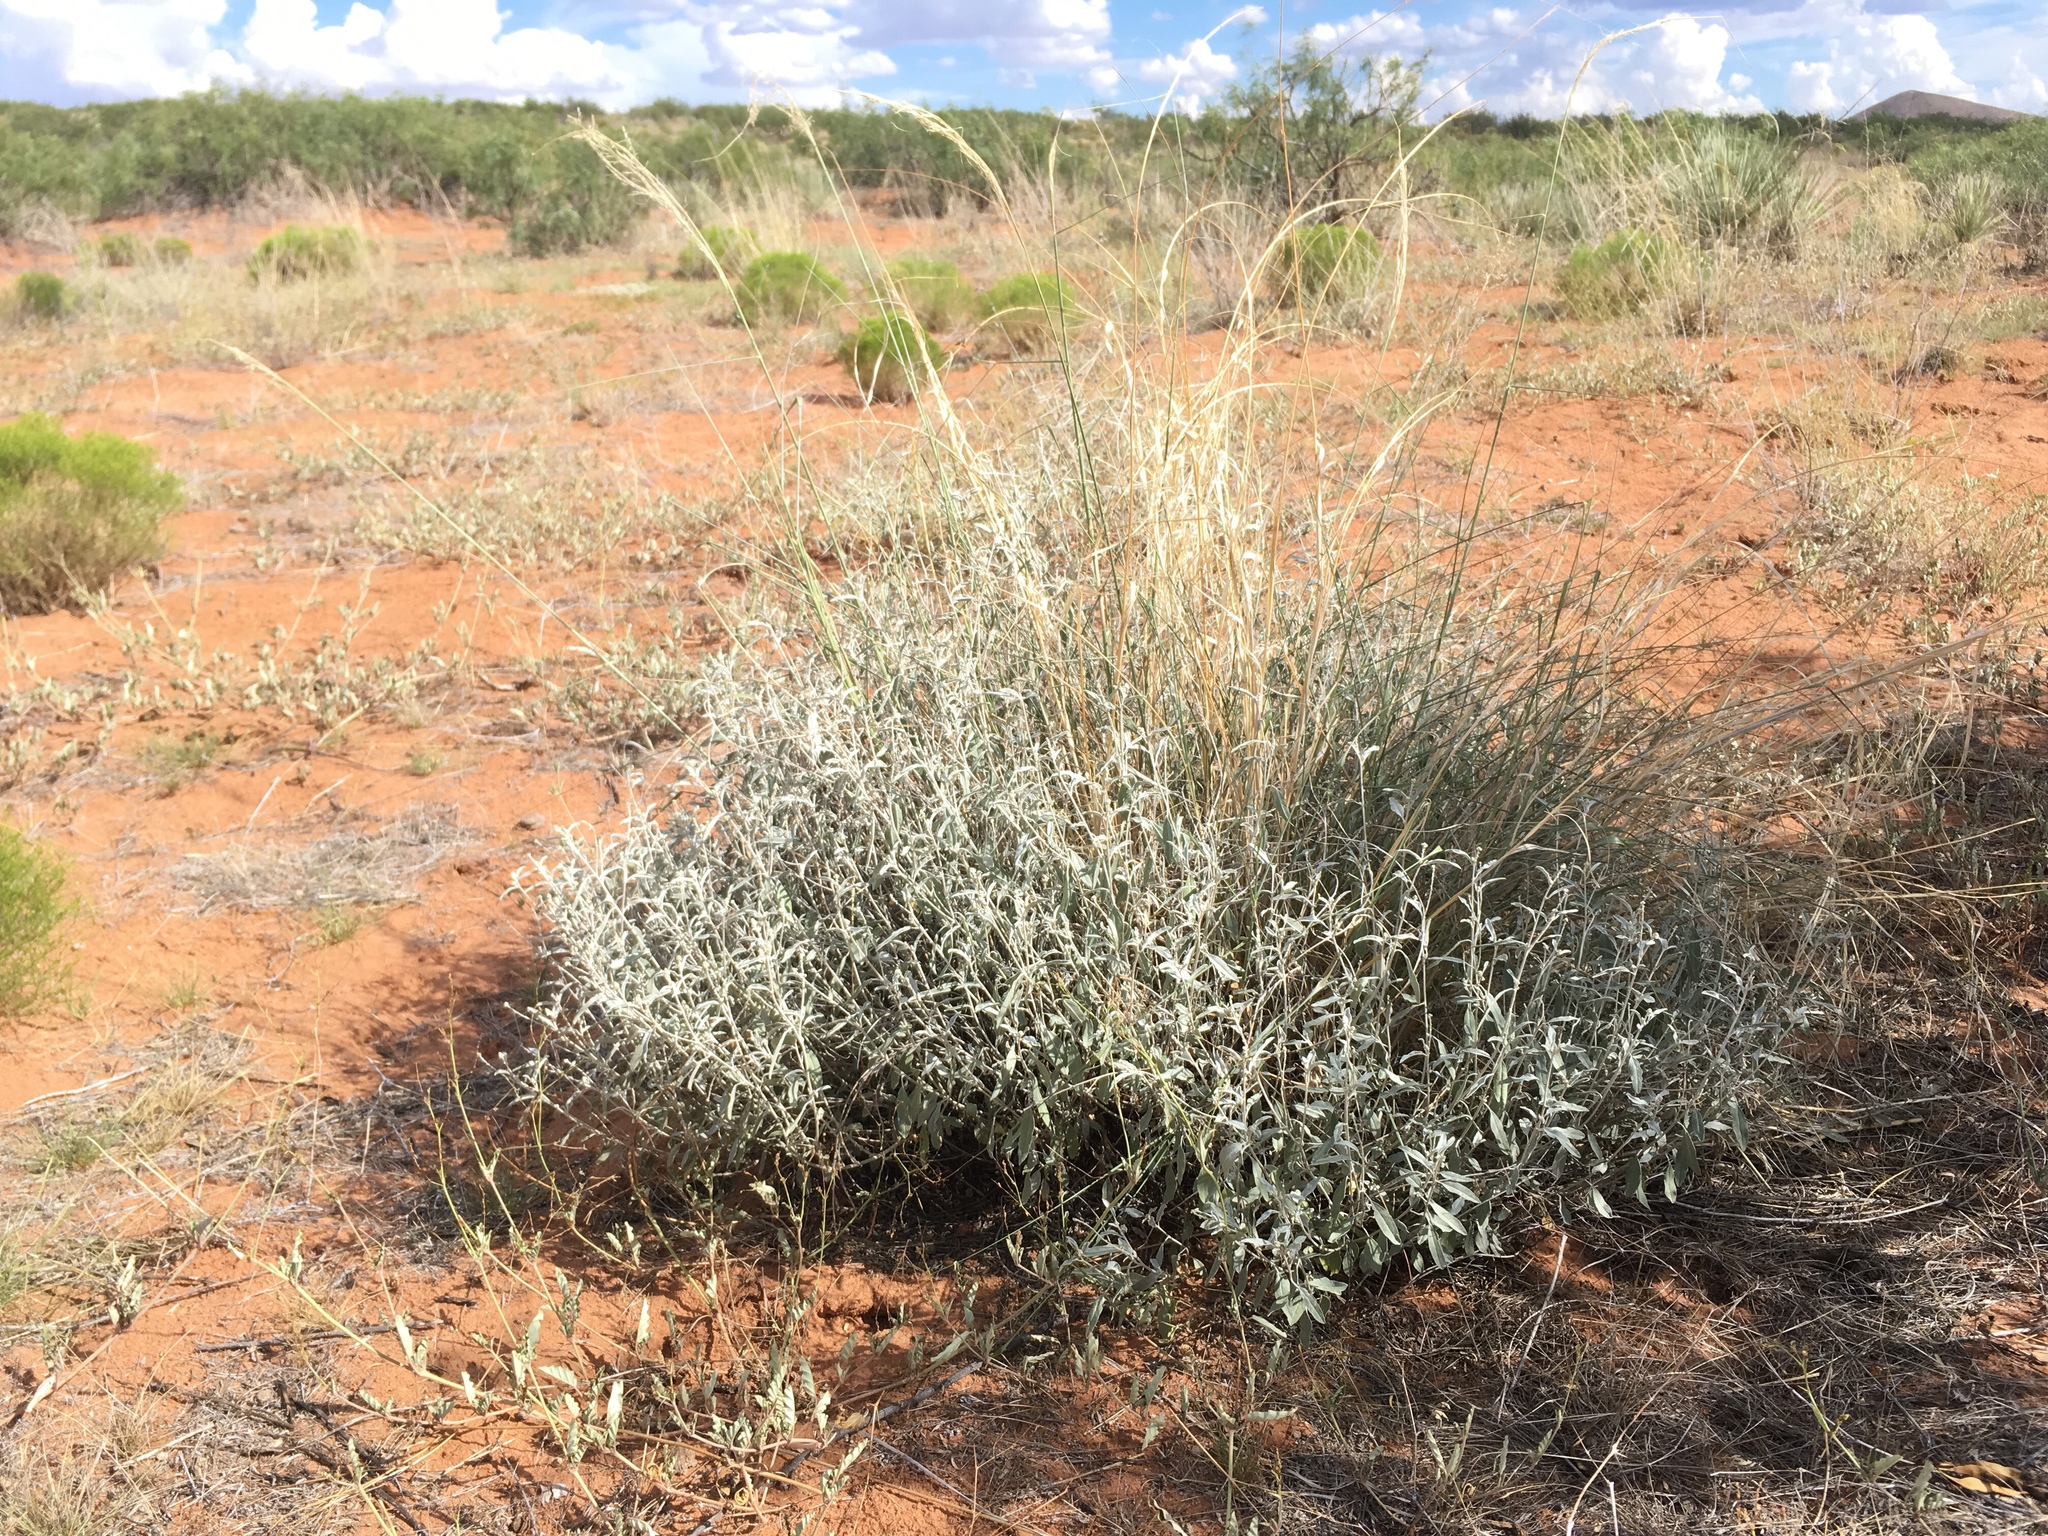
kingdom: Plantae
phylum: Tracheophyta
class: Magnoliopsida
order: Malpighiales
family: Euphorbiaceae
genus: Croton
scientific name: Croton dioicus
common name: Grassland croton
